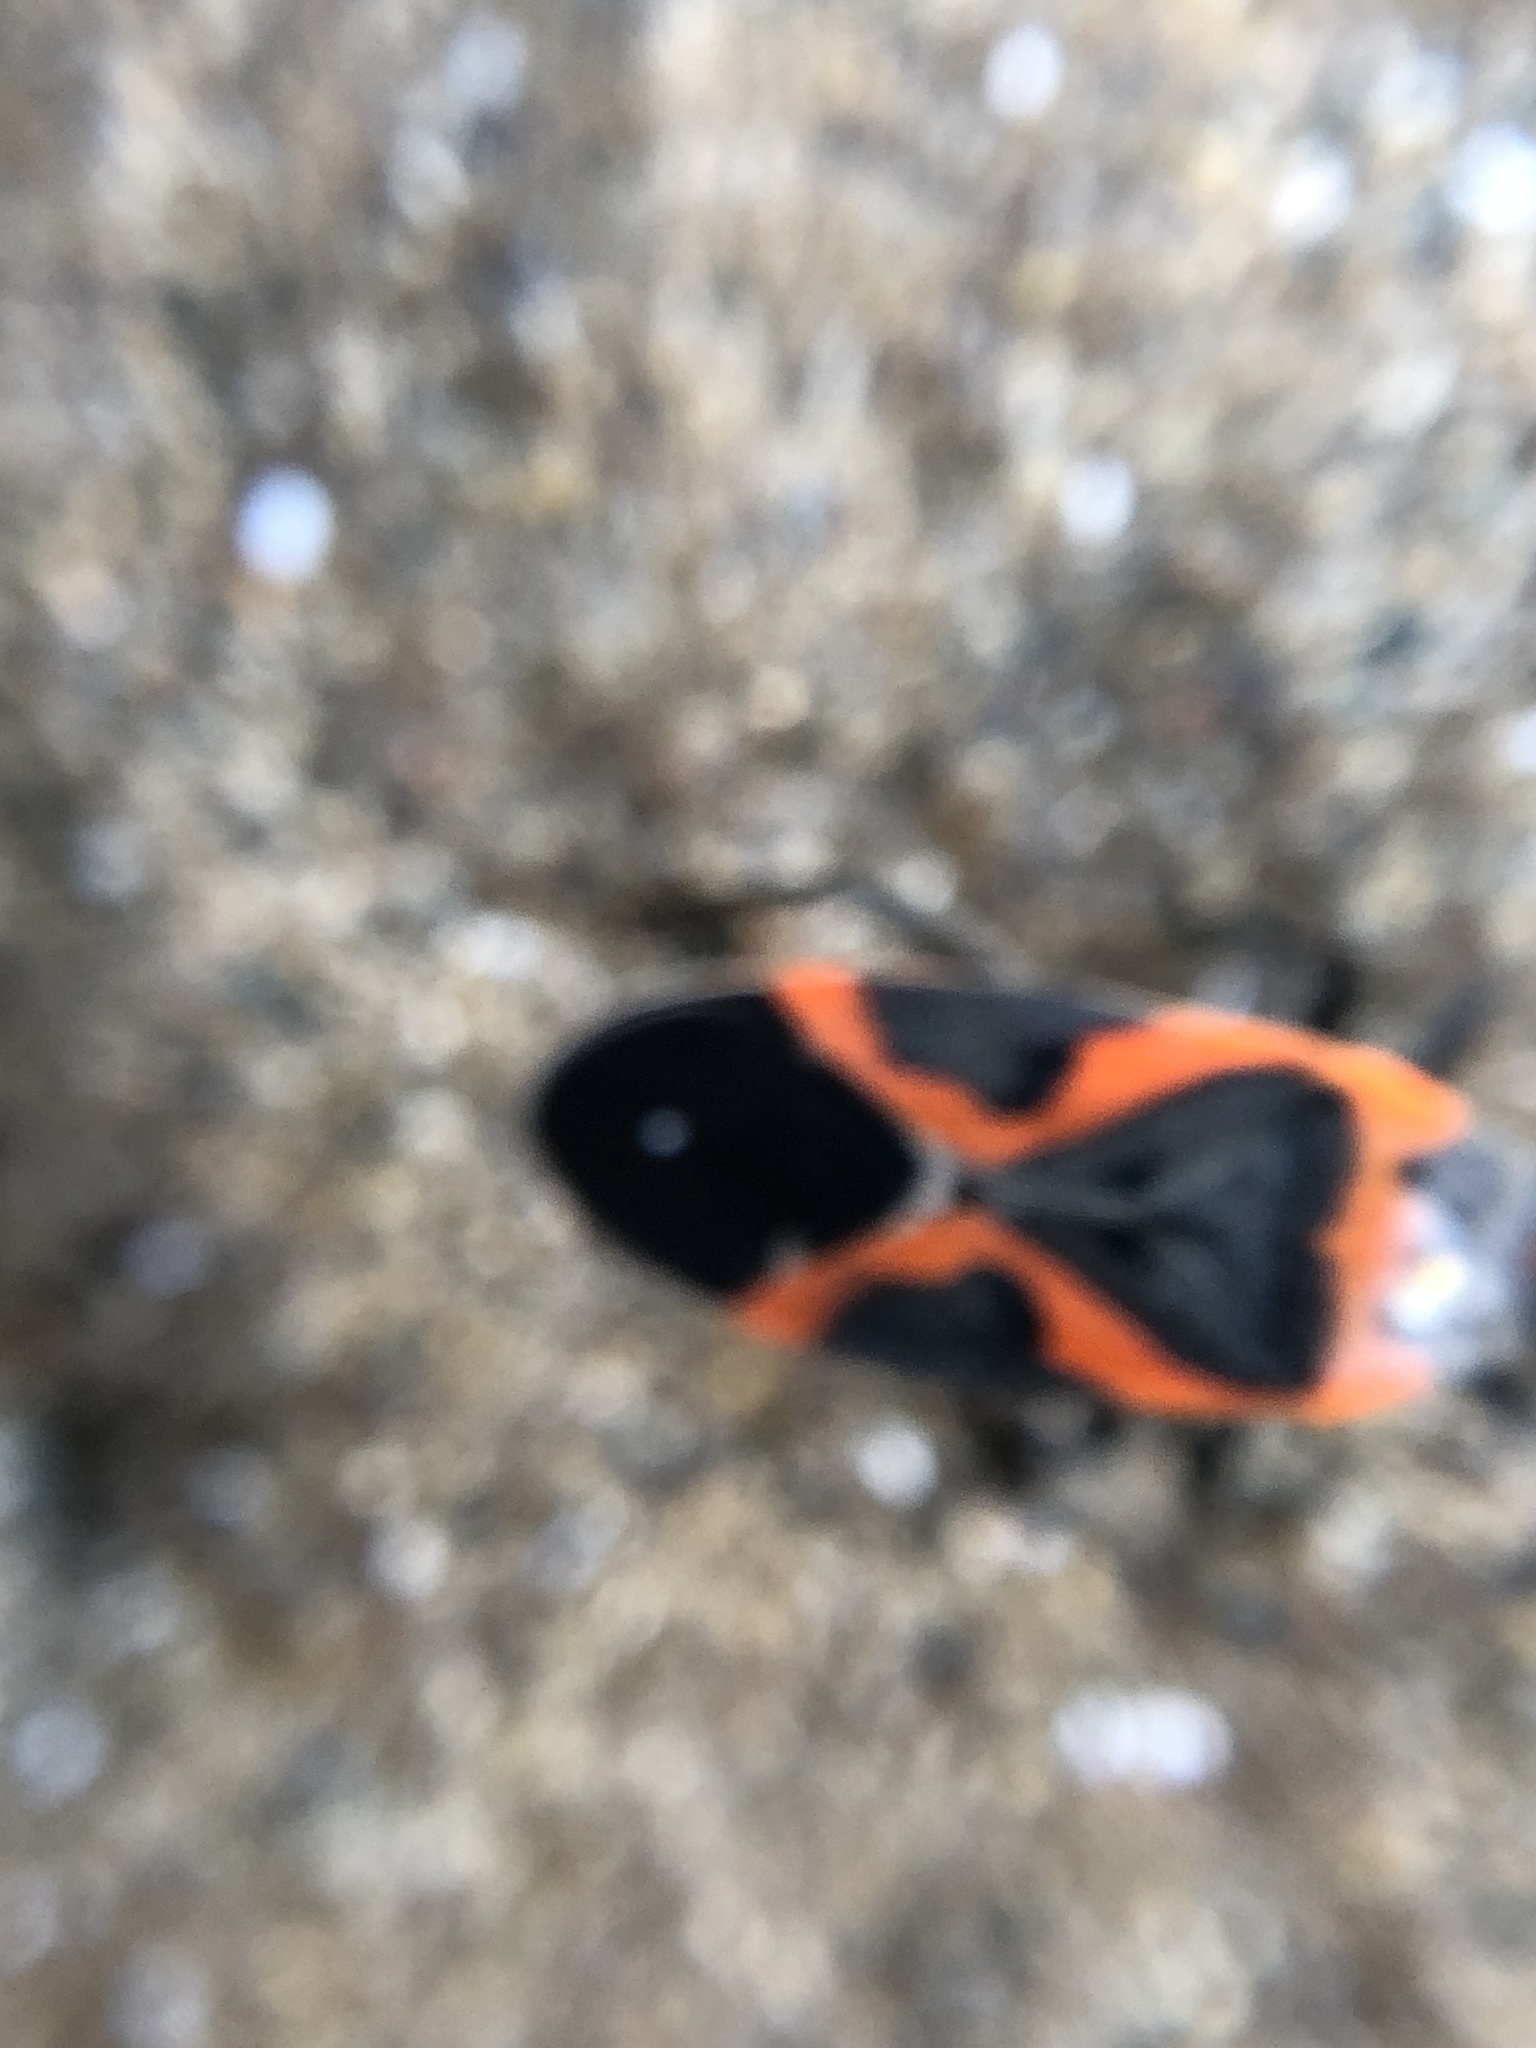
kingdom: Animalia
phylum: Arthropoda
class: Insecta
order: Hemiptera
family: Lygaeidae
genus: Lygaeus
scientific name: Lygaeus kalmii
